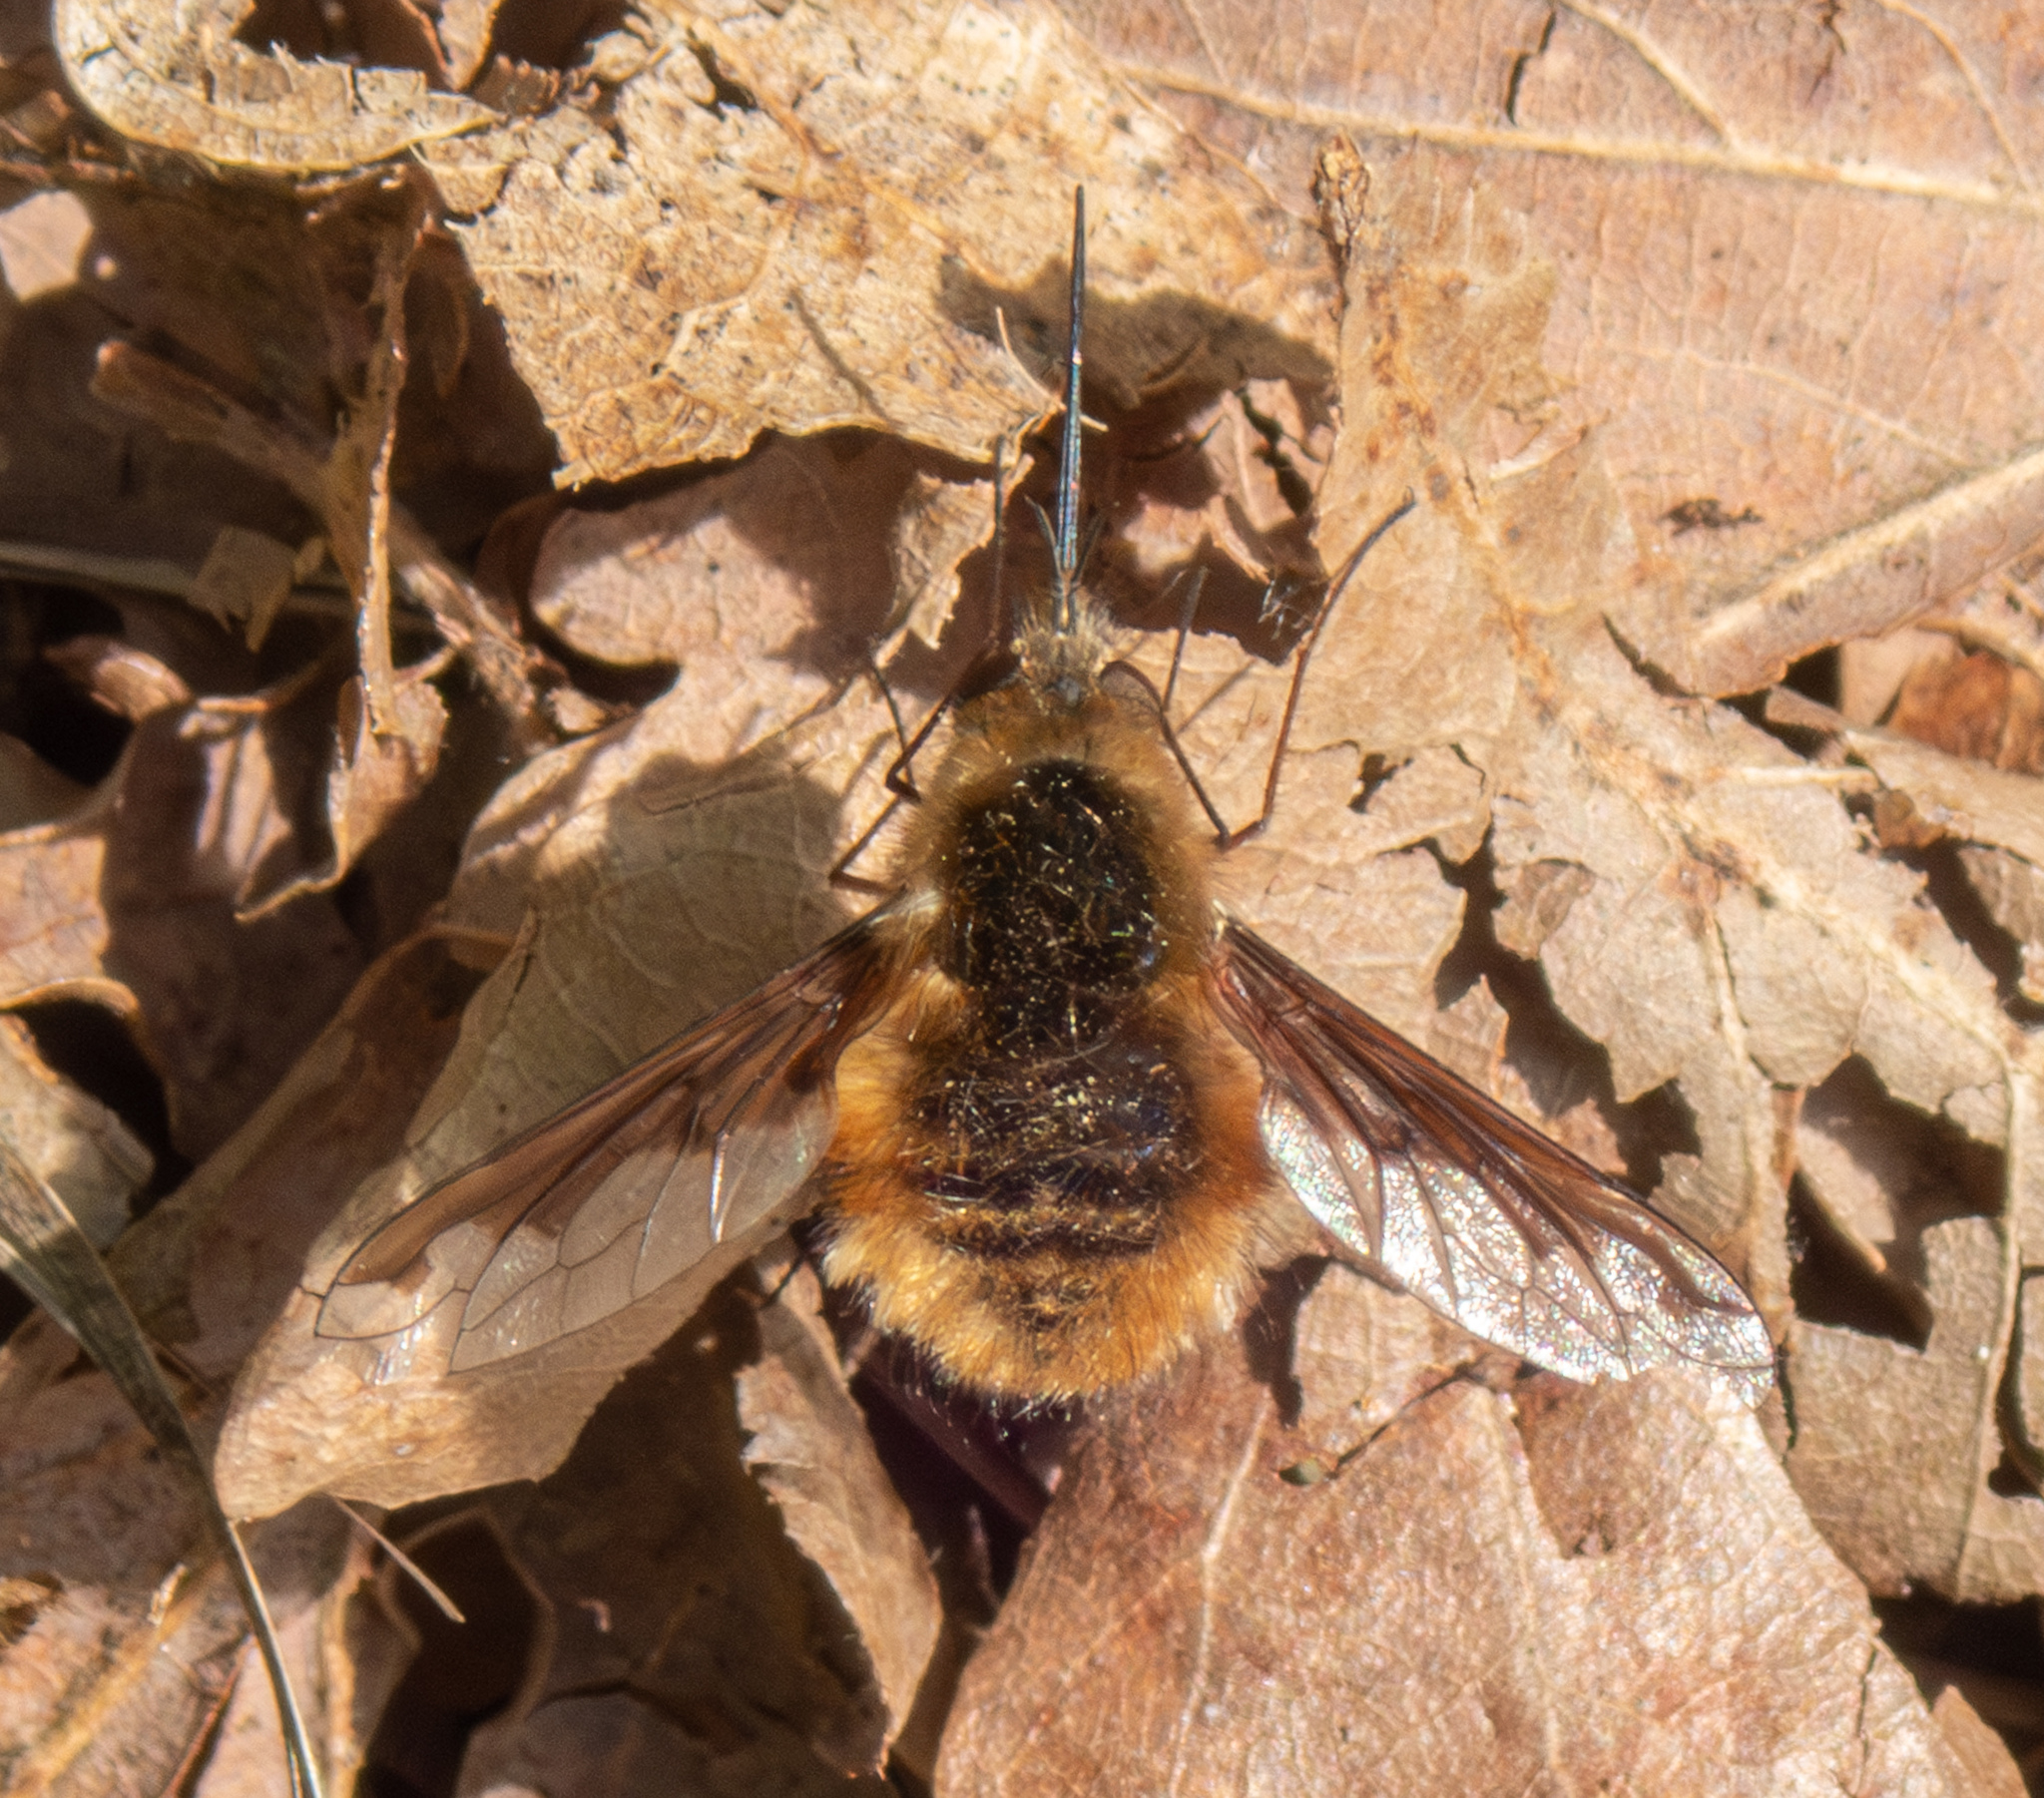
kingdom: Animalia
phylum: Arthropoda
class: Insecta
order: Diptera
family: Bombyliidae
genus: Bombylius
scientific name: Bombylius major
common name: Bee fly
